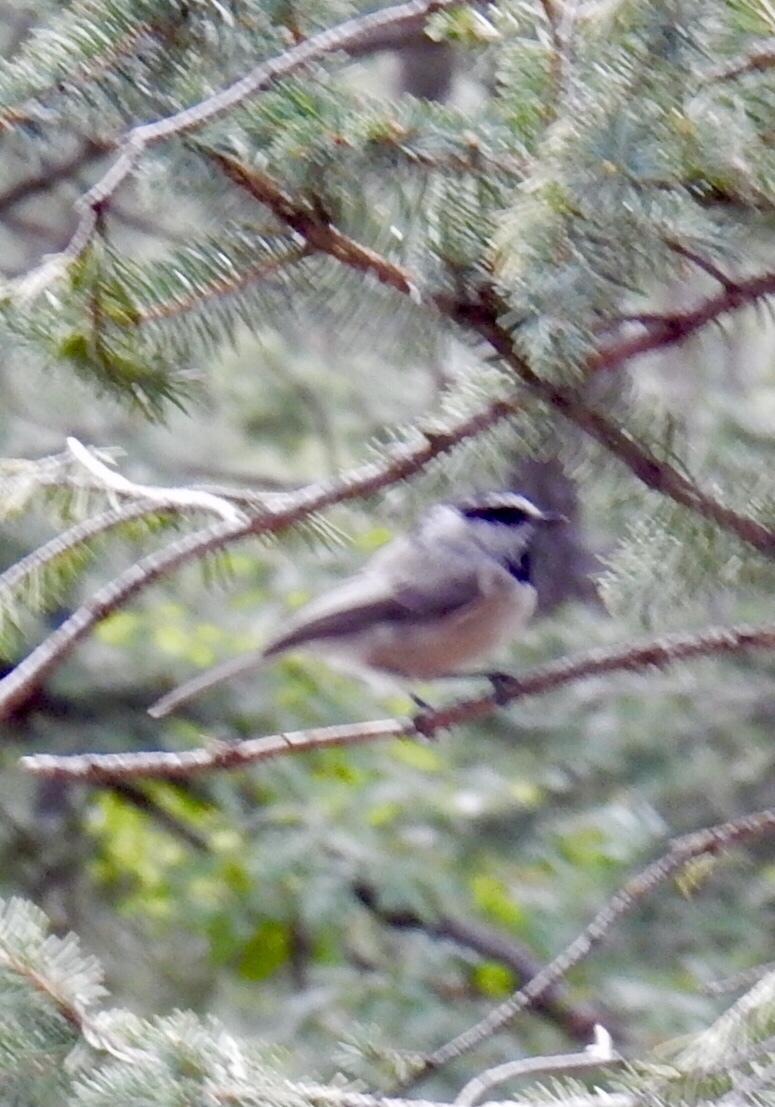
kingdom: Animalia
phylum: Chordata
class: Aves
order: Passeriformes
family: Paridae
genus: Poecile
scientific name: Poecile gambeli
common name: Mountain chickadee
